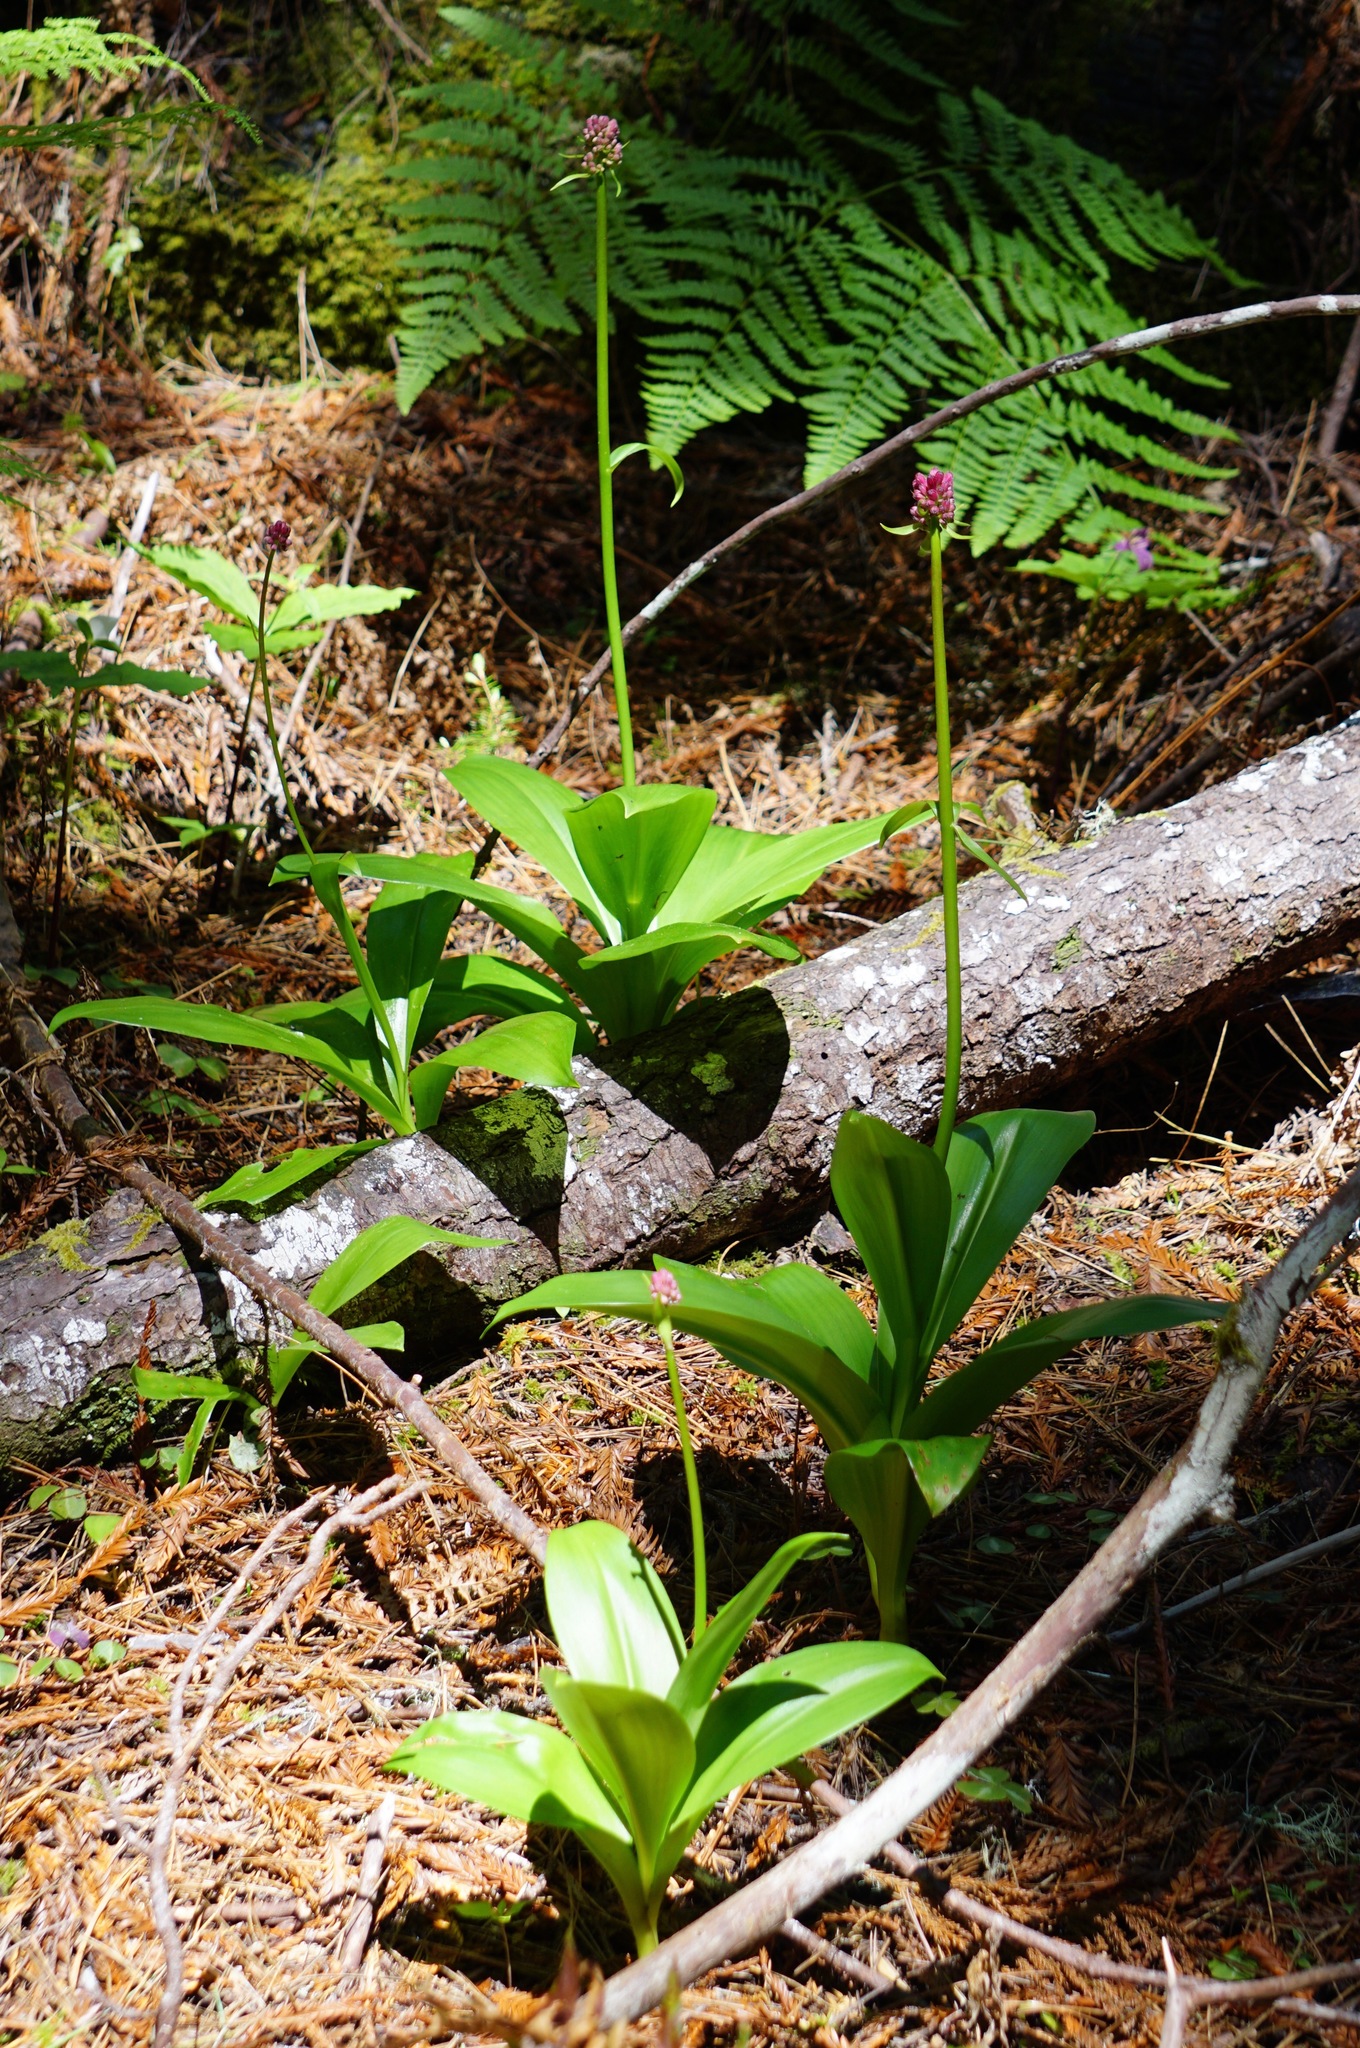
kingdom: Plantae
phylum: Tracheophyta
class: Liliopsida
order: Liliales
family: Liliaceae
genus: Clintonia
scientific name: Clintonia andrewsiana
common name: Red clintonia
